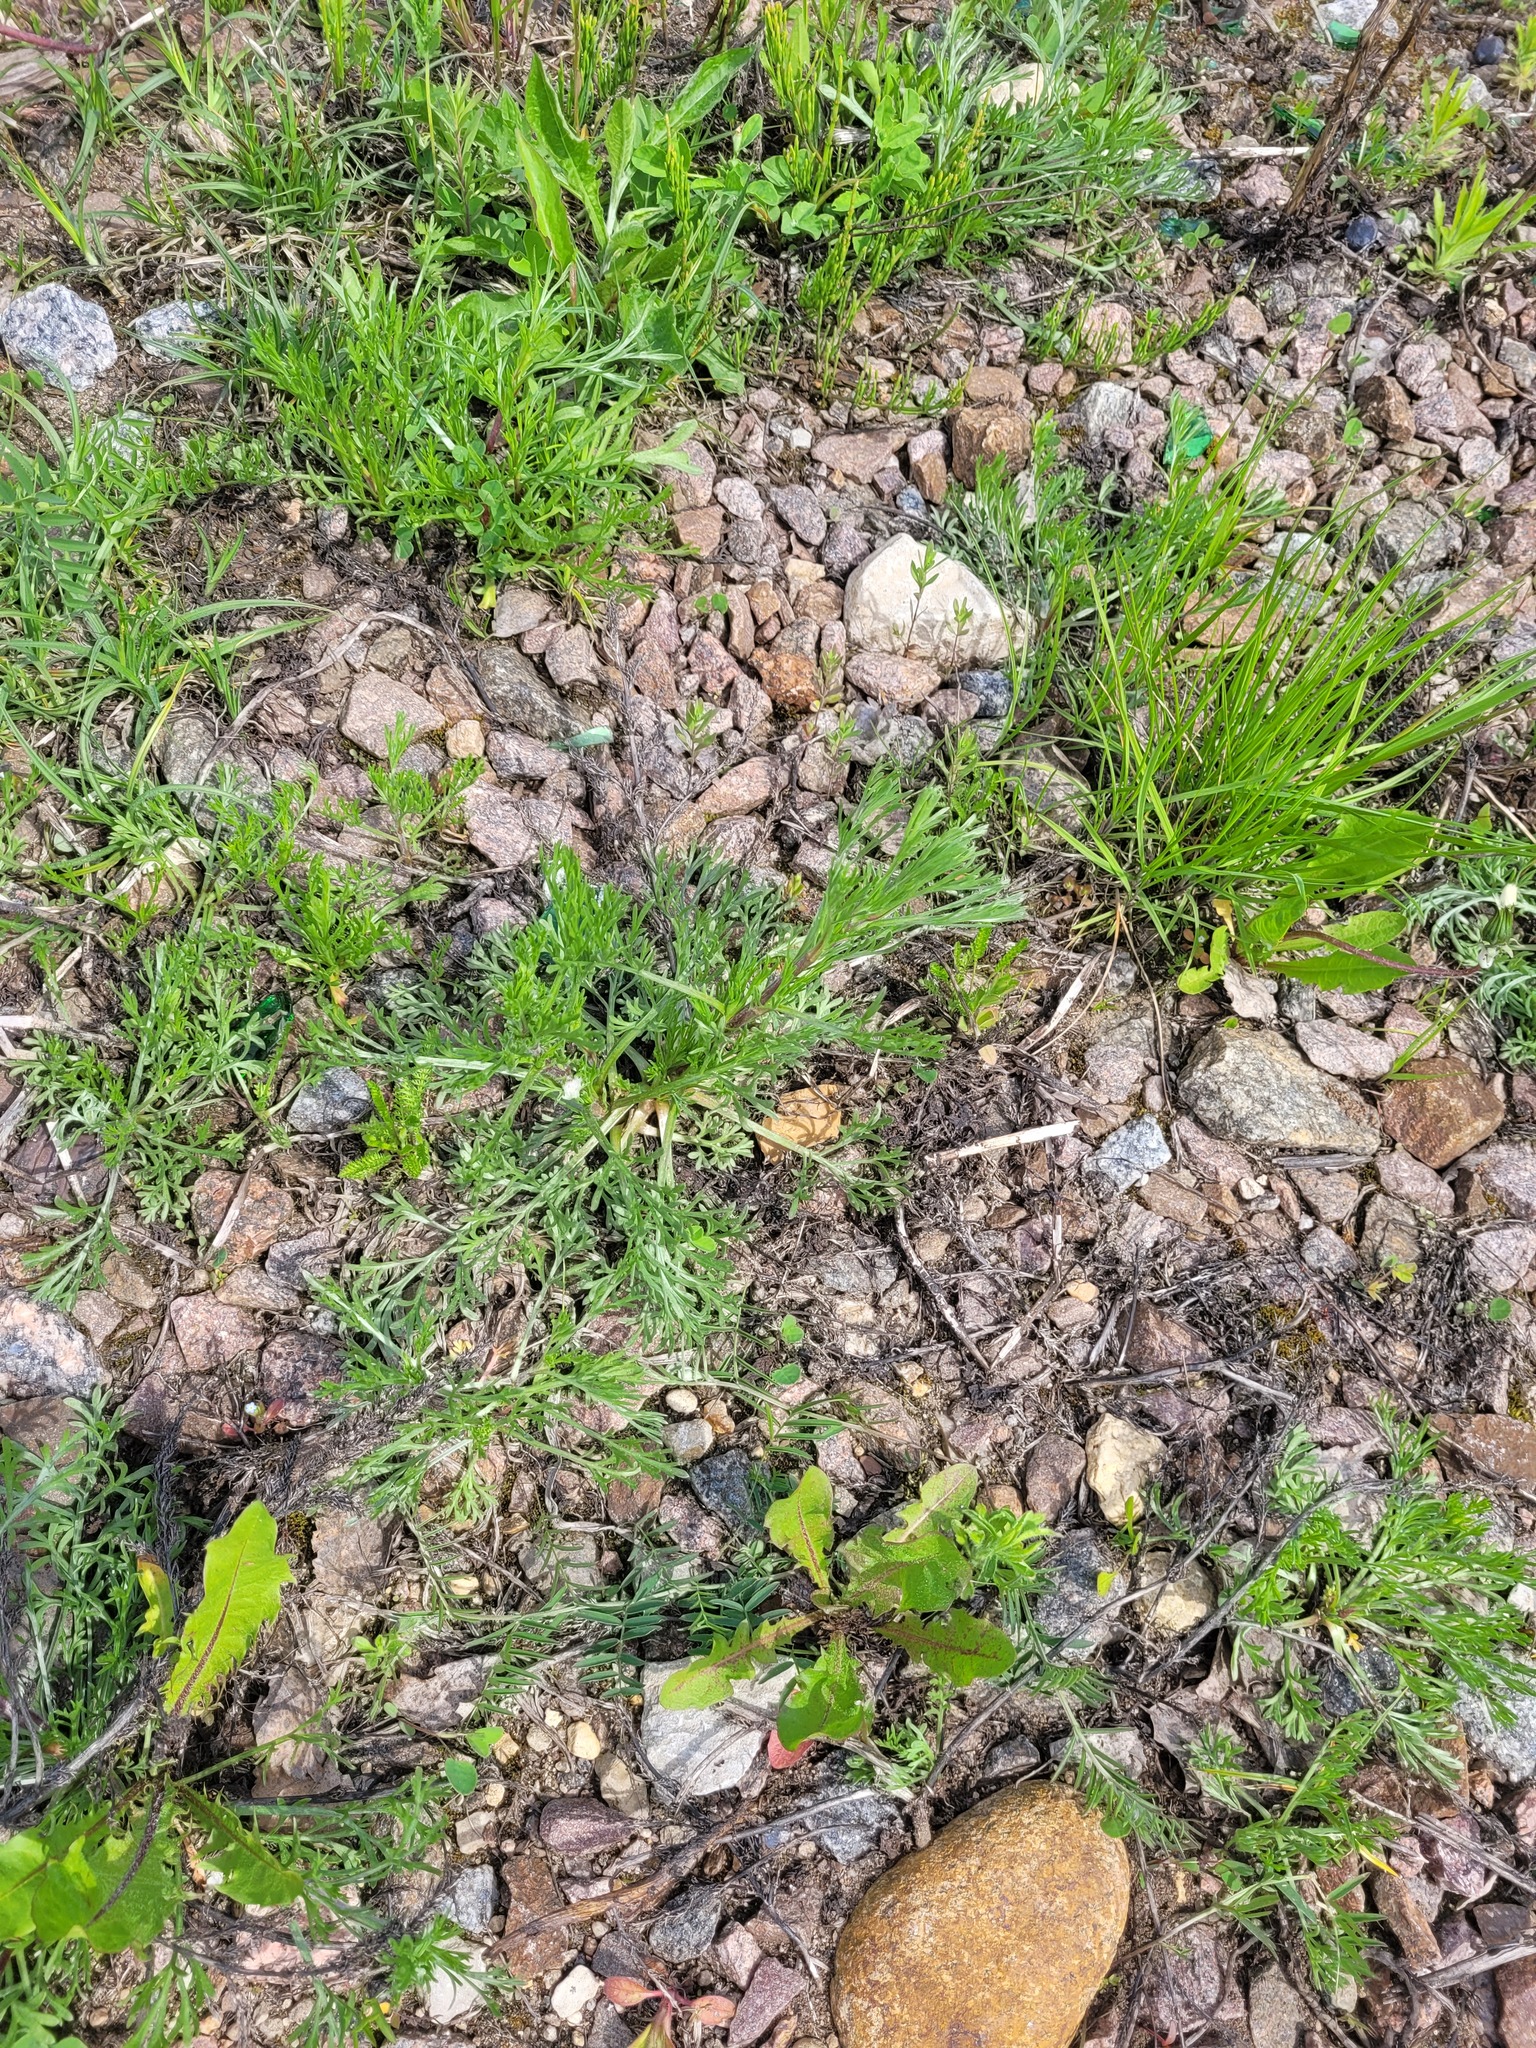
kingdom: Plantae
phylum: Tracheophyta
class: Magnoliopsida
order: Asterales
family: Asteraceae
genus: Artemisia
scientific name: Artemisia campestris
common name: Field wormwood
